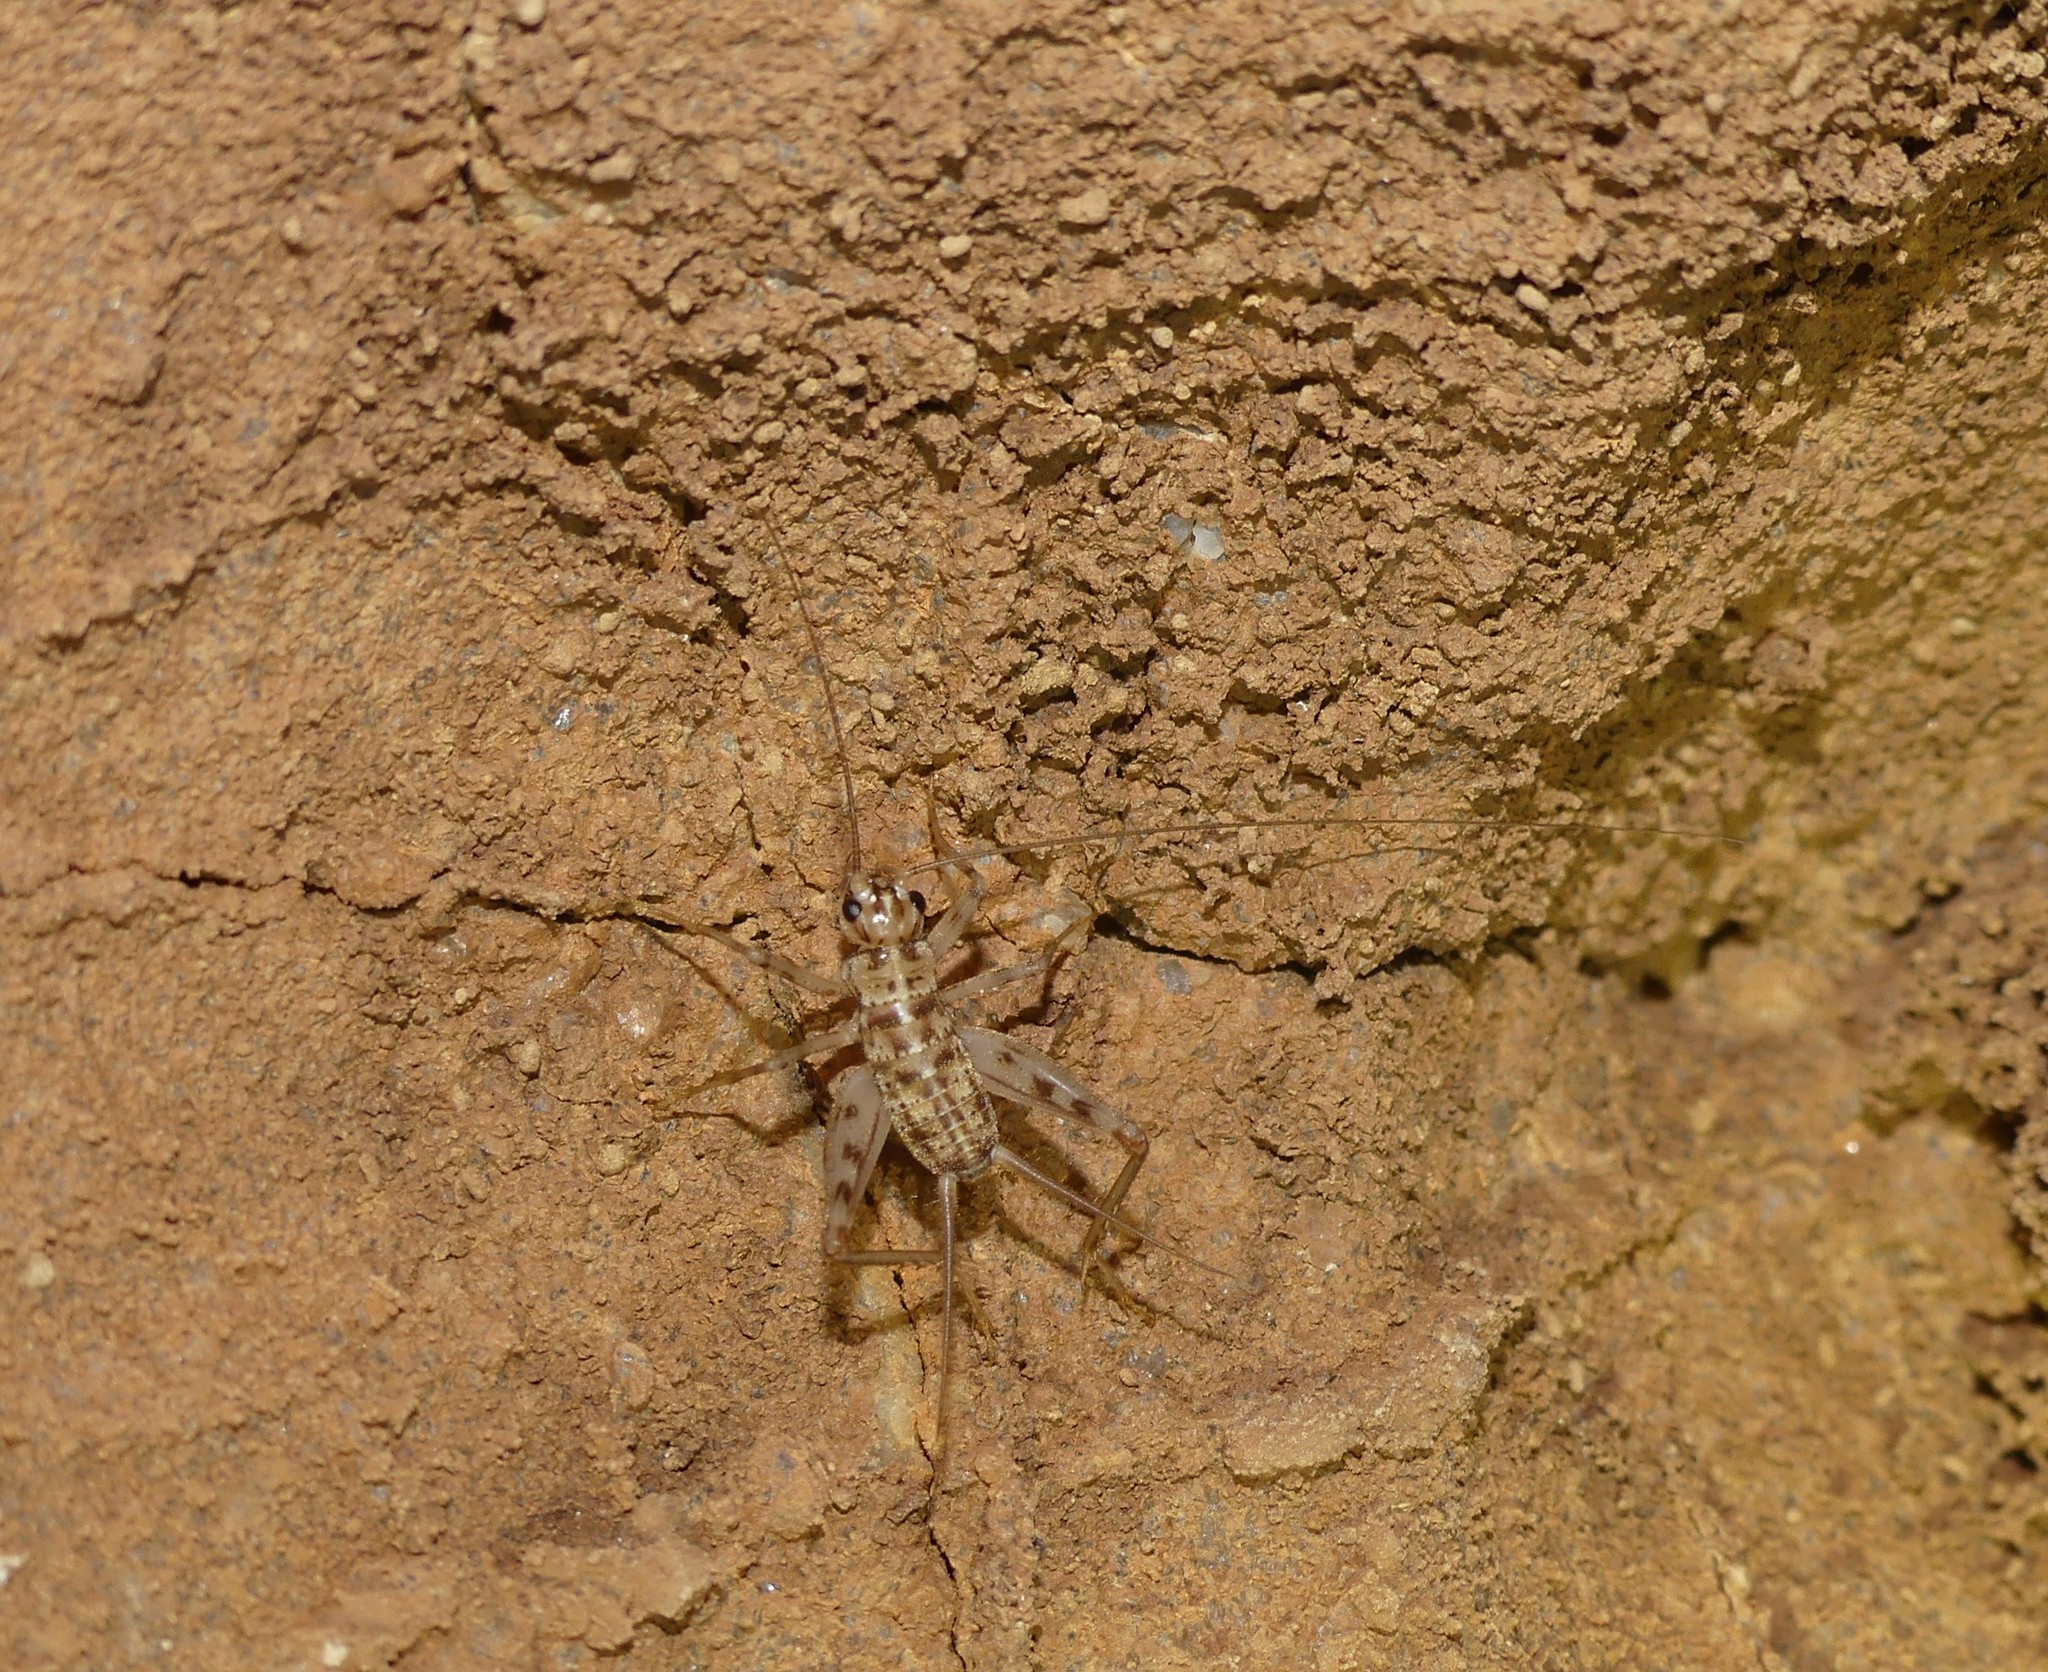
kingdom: Animalia
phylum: Arthropoda
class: Insecta
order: Orthoptera
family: Gryllidae
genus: Gryllomorpha
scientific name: Gryllomorpha dalmatina
